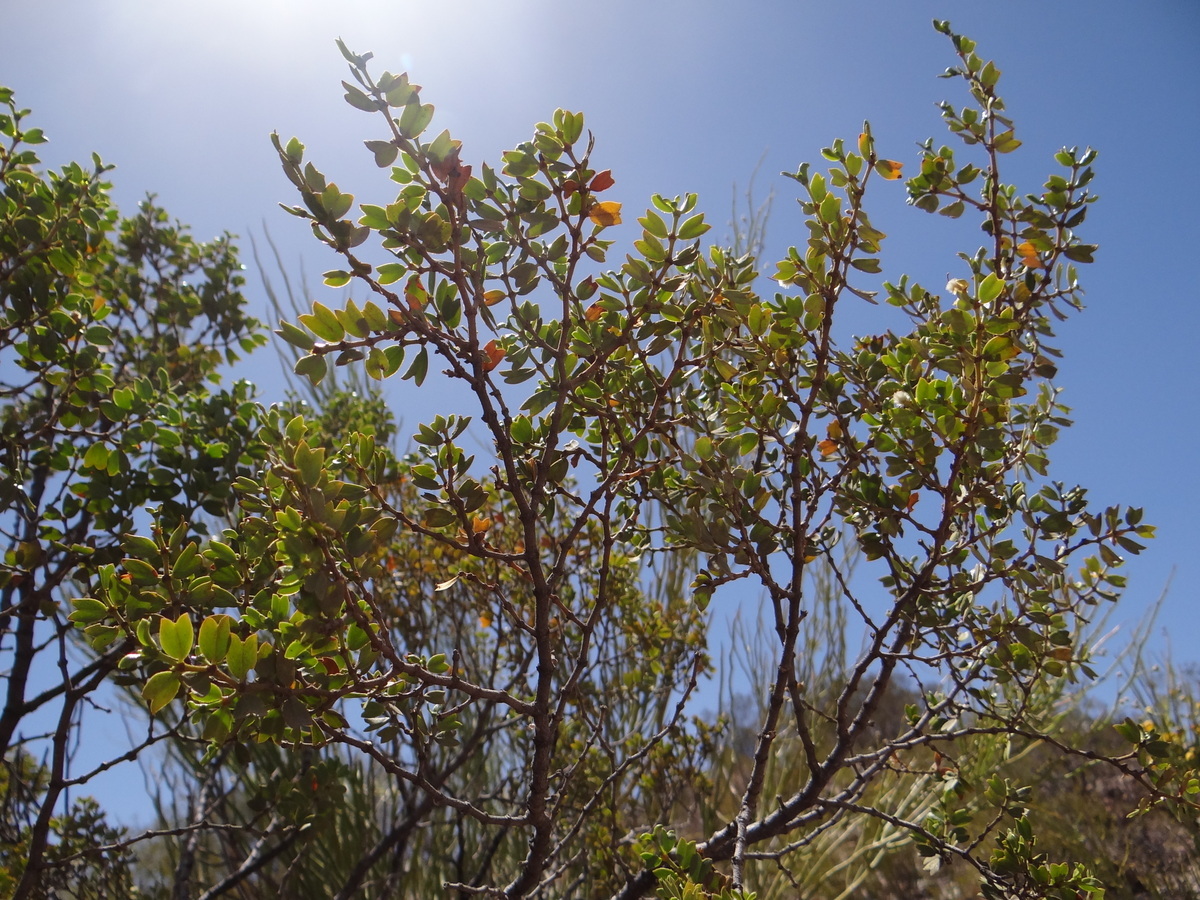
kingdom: Plantae
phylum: Tracheophyta
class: Magnoliopsida
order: Zygophyllales
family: Zygophyllaceae
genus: Larrea
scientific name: Larrea cuneifolia
